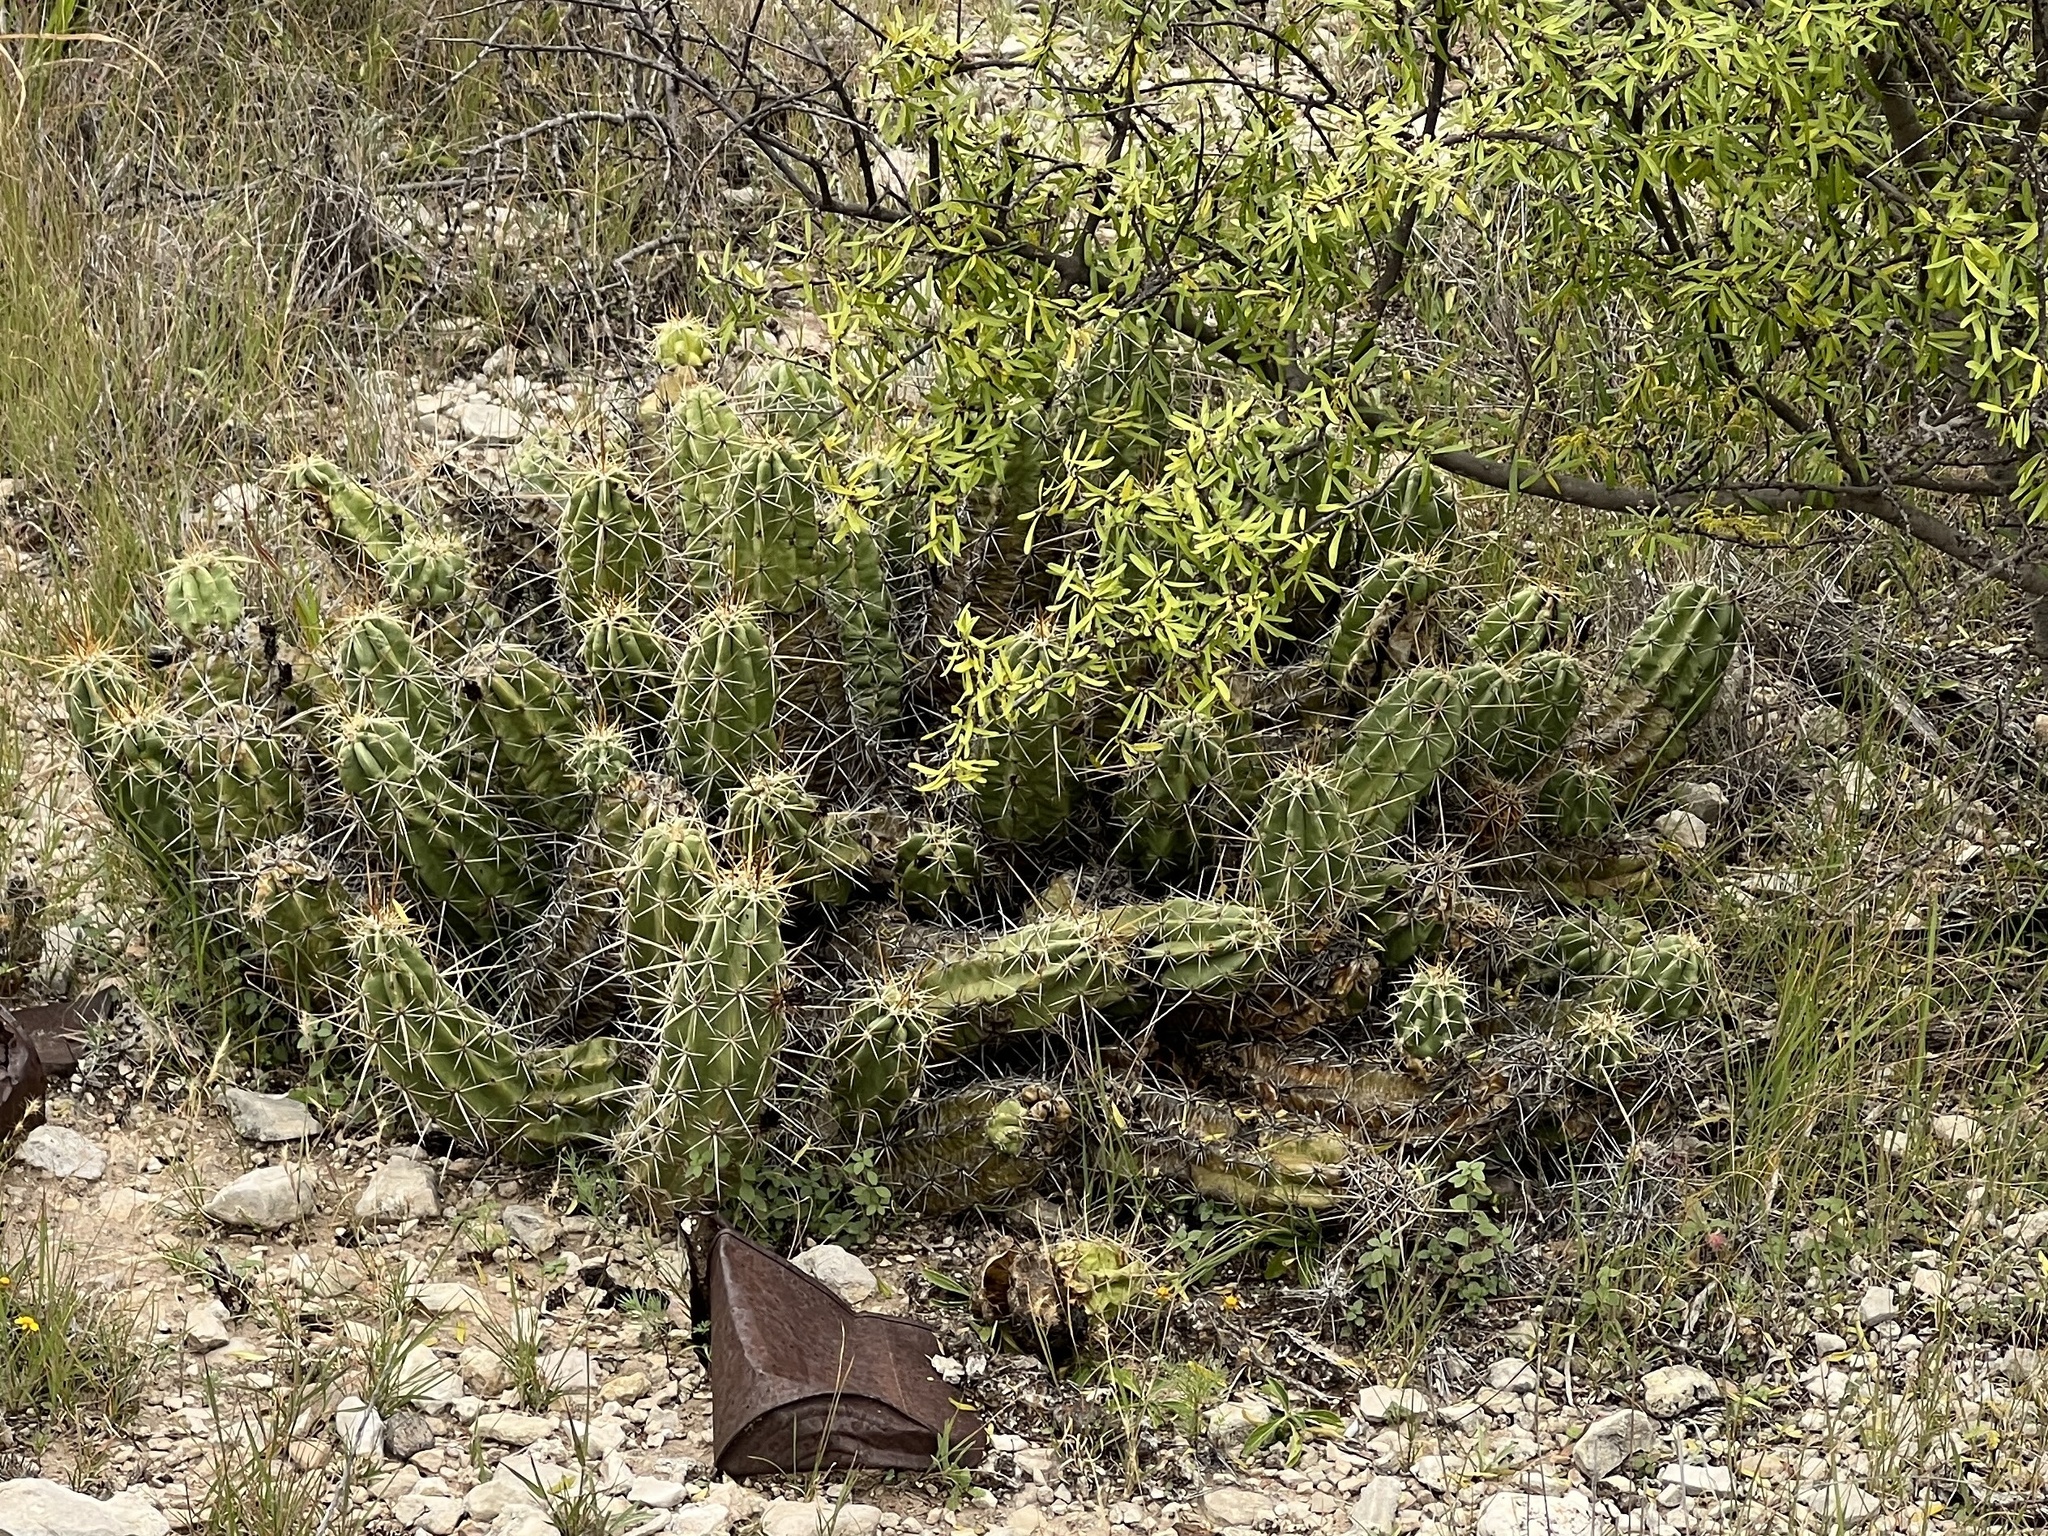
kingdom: Plantae
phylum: Tracheophyta
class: Magnoliopsida
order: Caryophyllales
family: Cactaceae
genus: Echinocereus
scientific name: Echinocereus enneacanthus
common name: Pitaya
